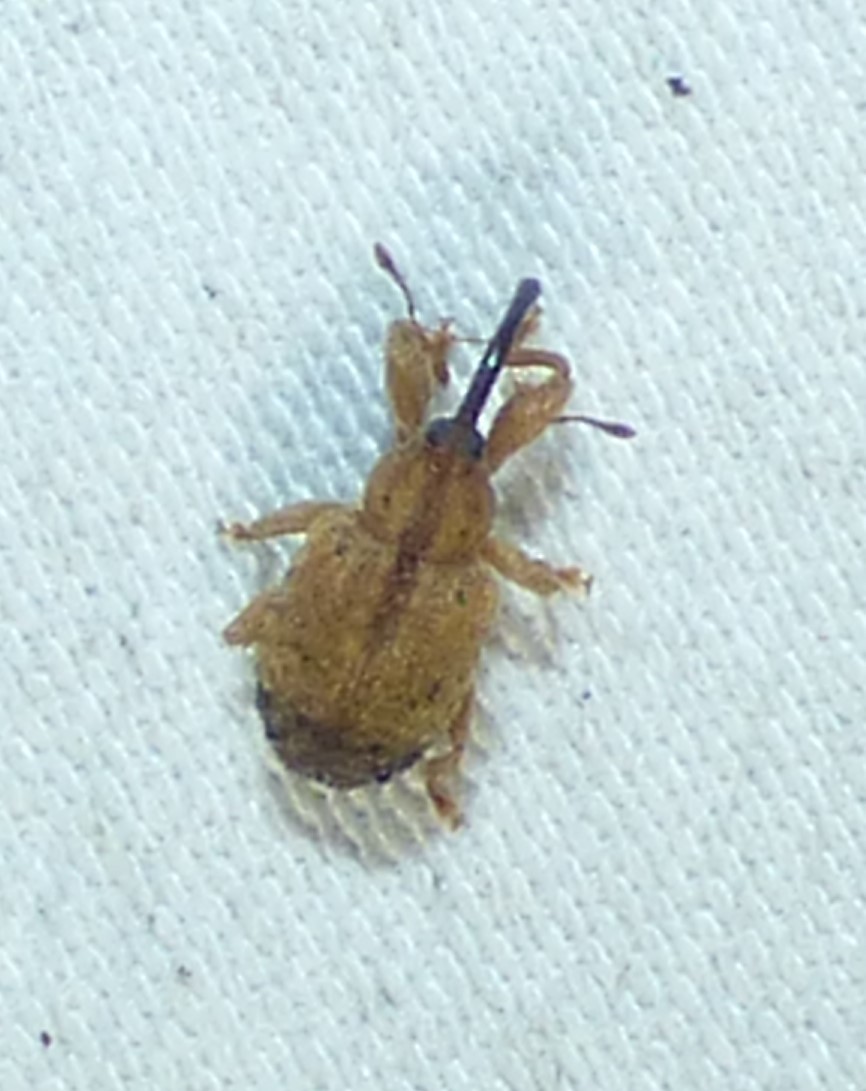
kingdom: Animalia
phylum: Arthropoda
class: Insecta
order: Coleoptera
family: Curculionidae
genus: Ochyromera
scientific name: Ochyromera ligustri
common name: Weevil
